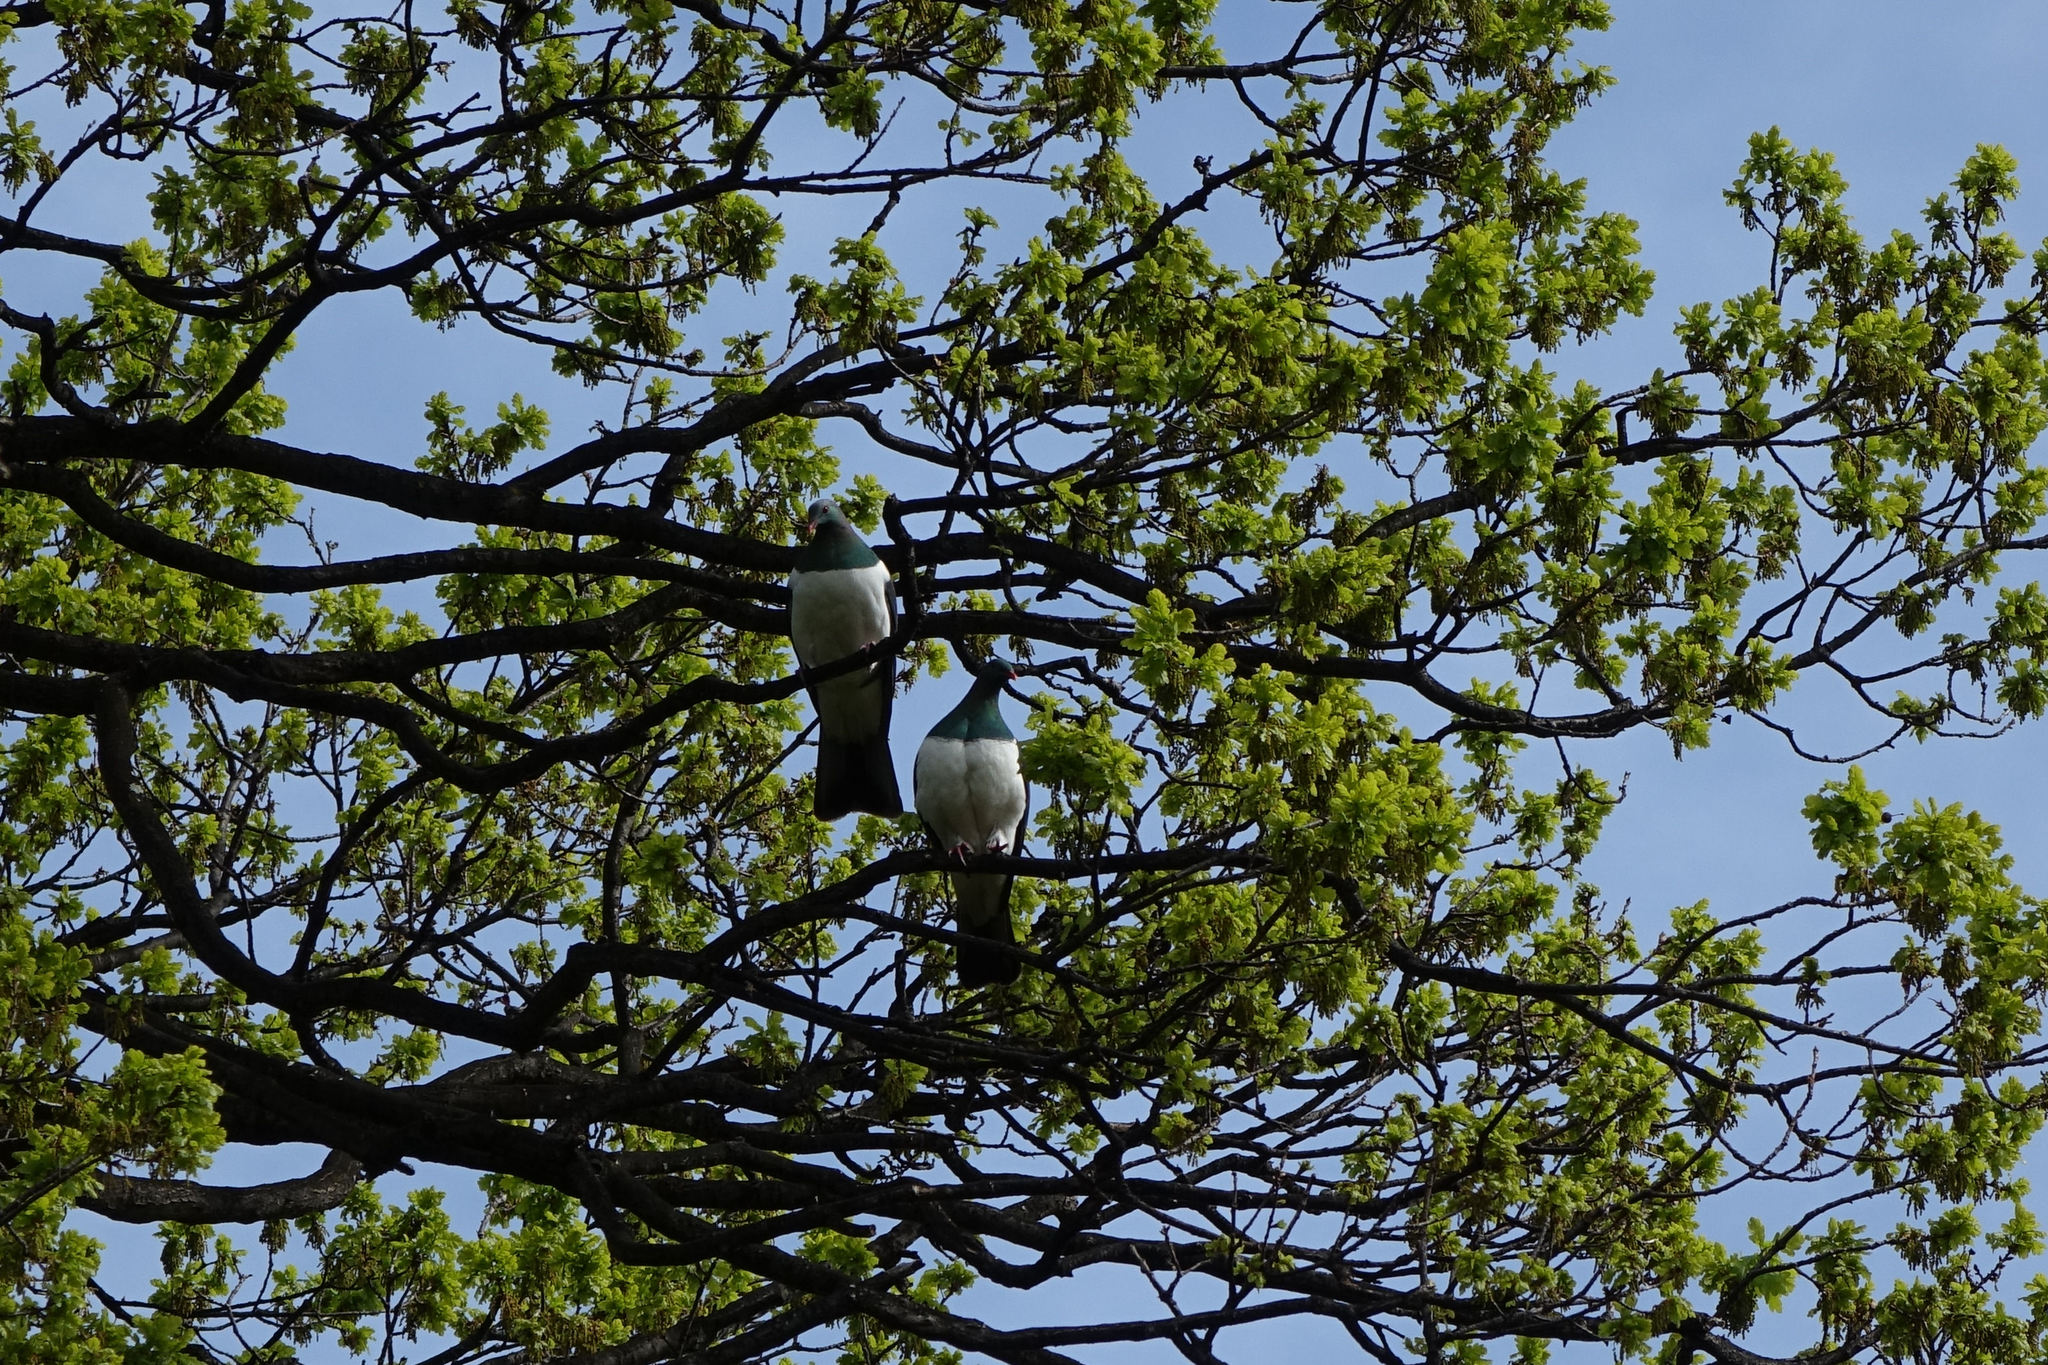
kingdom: Animalia
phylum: Chordata
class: Aves
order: Columbiformes
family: Columbidae
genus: Hemiphaga
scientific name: Hemiphaga novaeseelandiae
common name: New zealand pigeon
